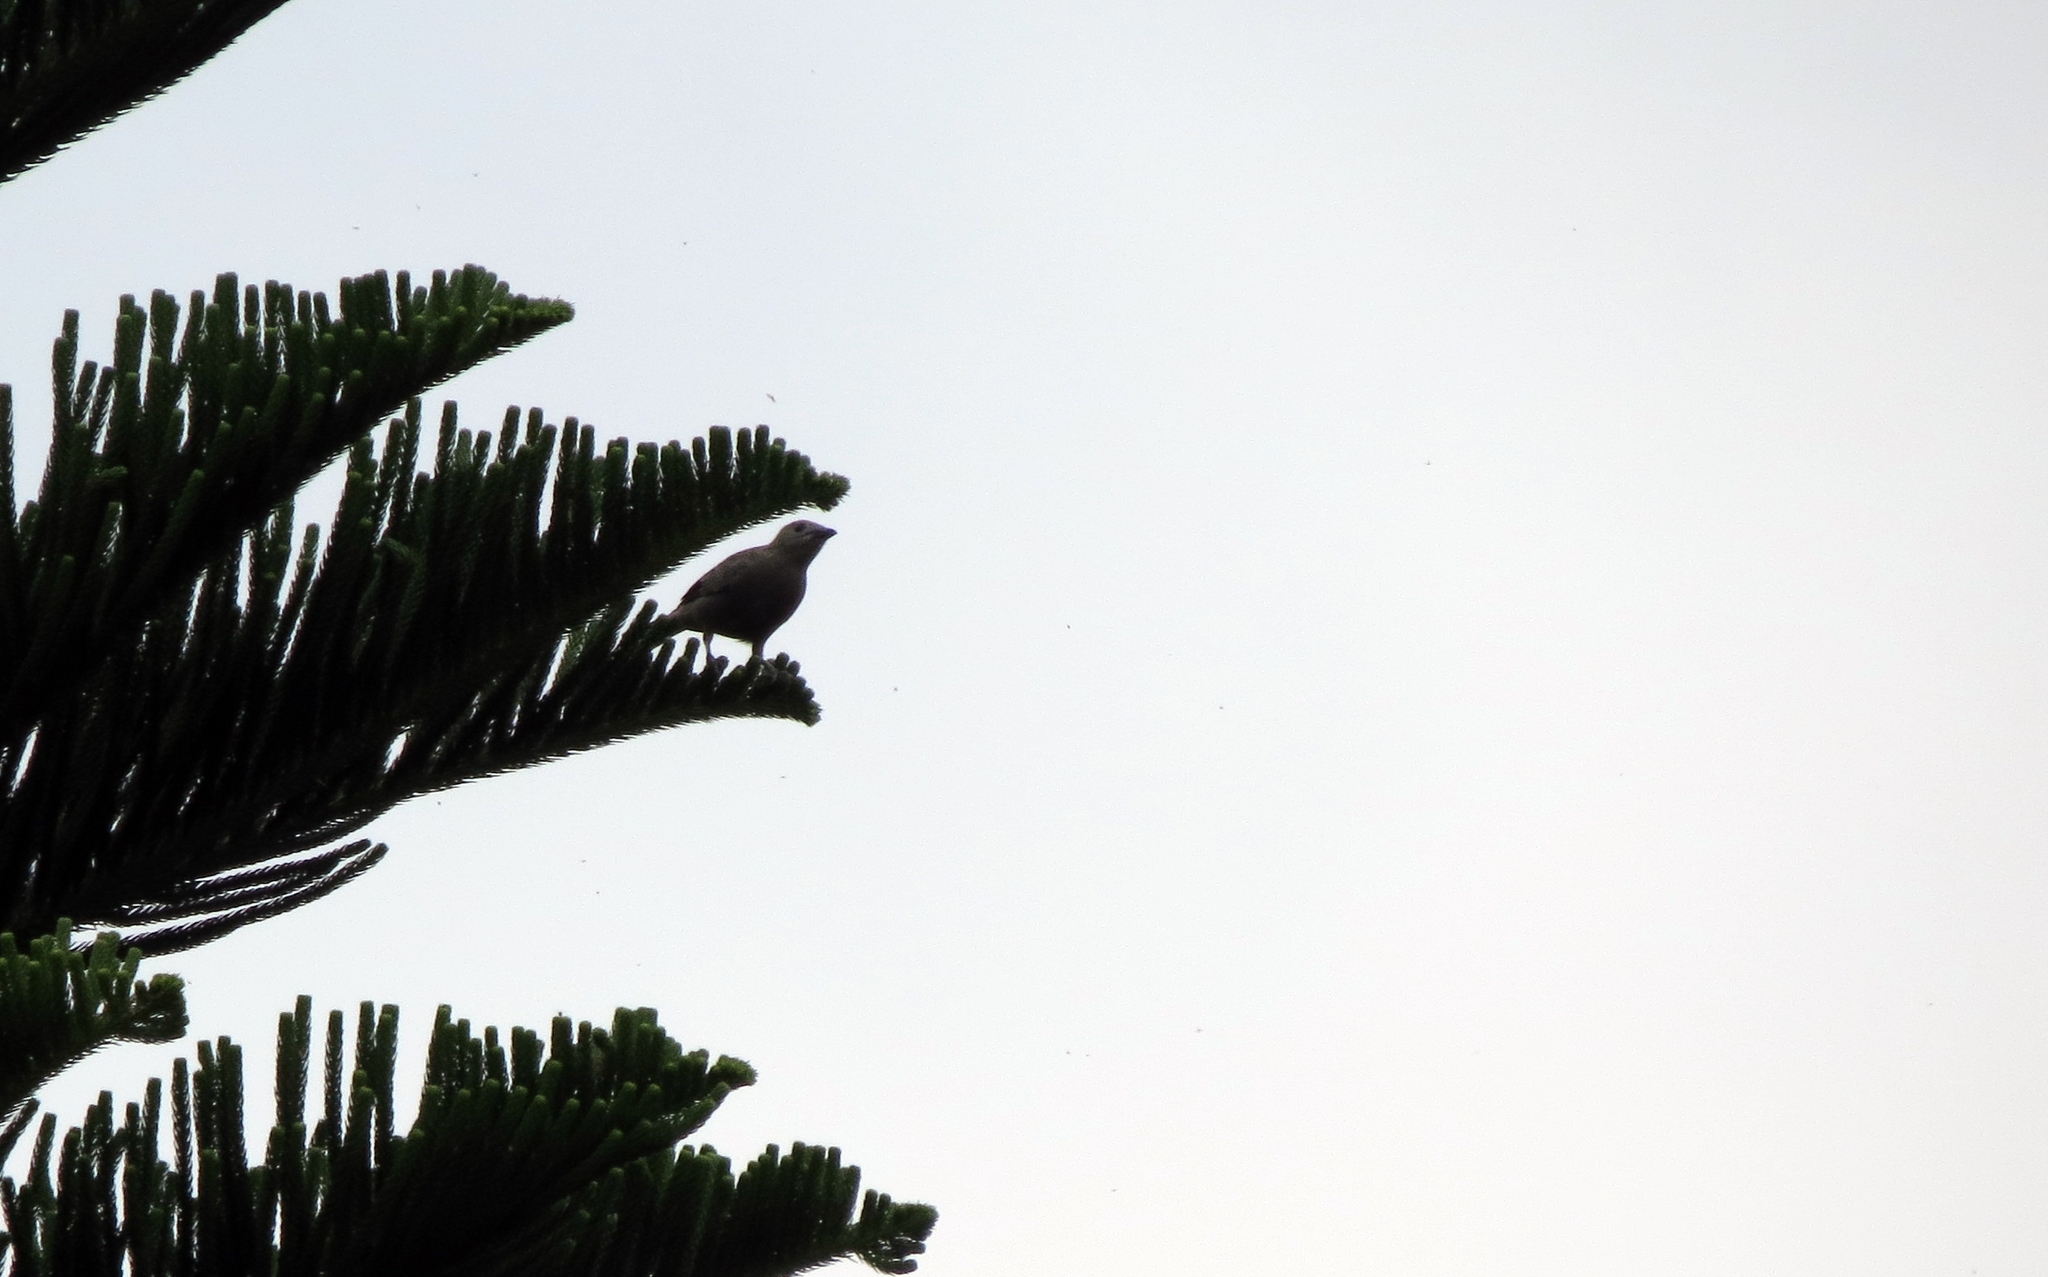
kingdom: Animalia
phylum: Chordata
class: Aves
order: Passeriformes
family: Thraupidae
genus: Thraupis
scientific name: Thraupis palmarum
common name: Palm tanager
